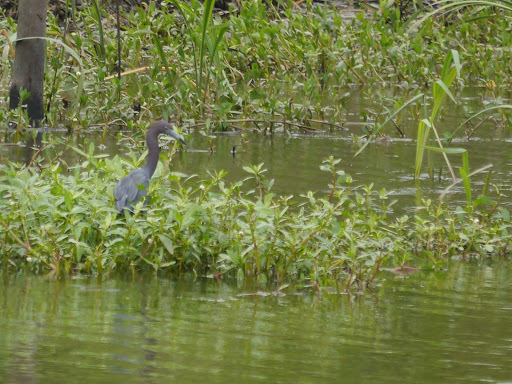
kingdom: Animalia
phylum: Chordata
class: Aves
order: Pelecaniformes
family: Ardeidae
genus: Egretta
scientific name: Egretta caerulea
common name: Little blue heron
